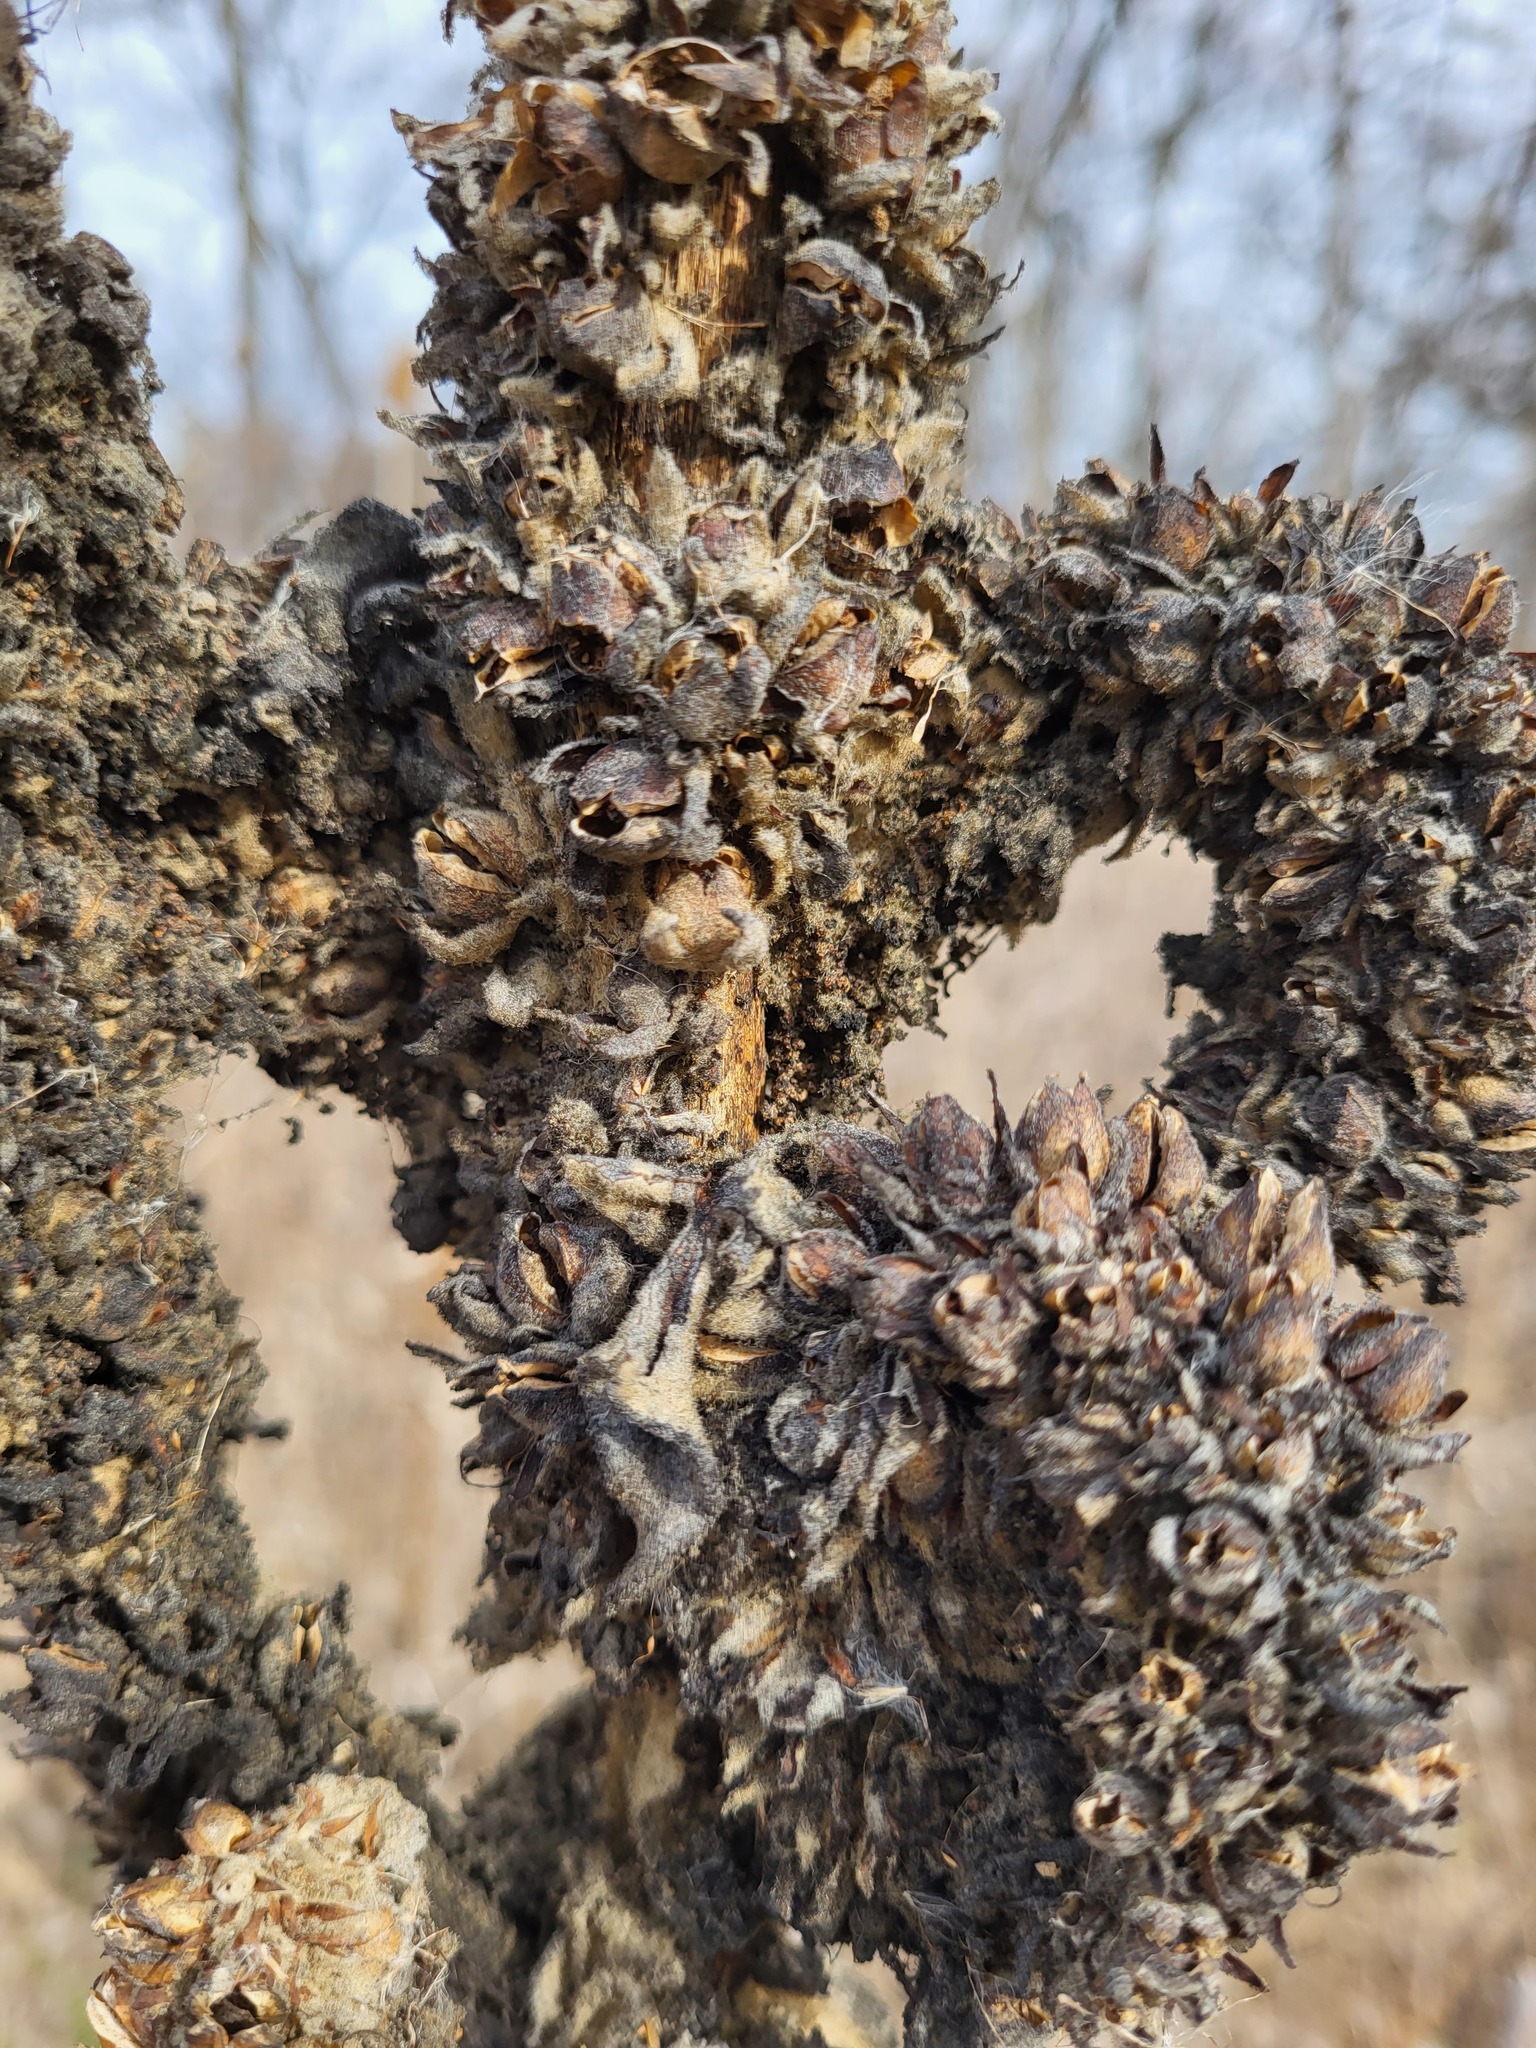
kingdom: Plantae
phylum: Tracheophyta
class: Magnoliopsida
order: Lamiales
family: Scrophulariaceae
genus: Verbascum
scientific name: Verbascum thapsus
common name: Common mullein
